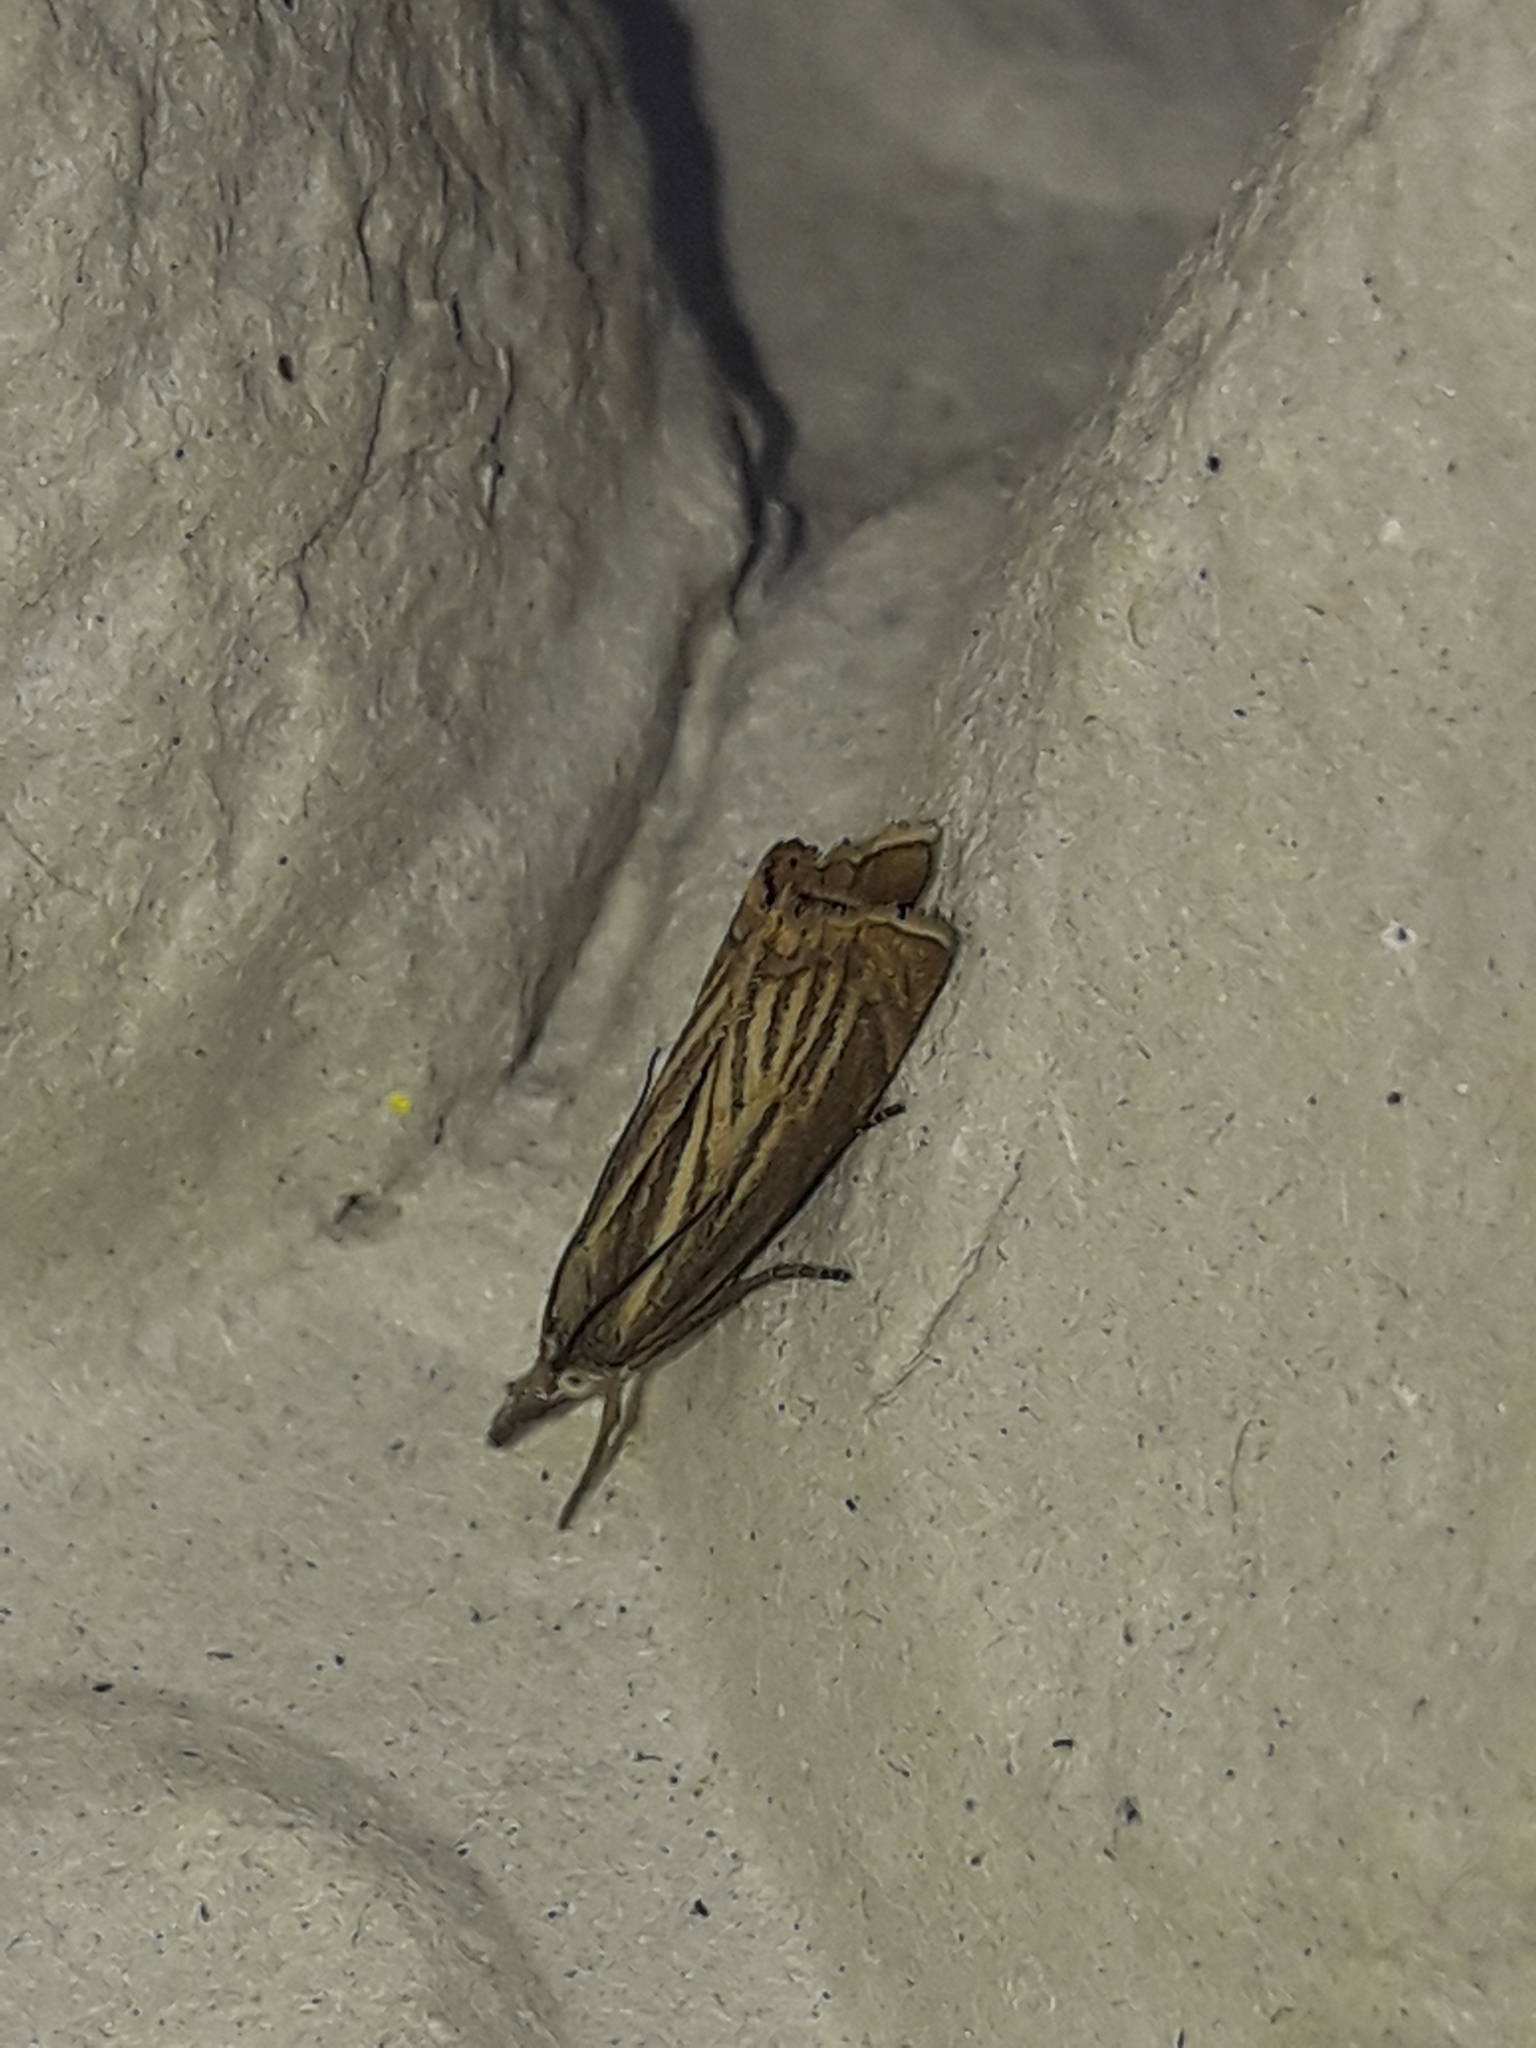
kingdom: Animalia
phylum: Arthropoda
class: Insecta
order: Lepidoptera
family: Crambidae
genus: Chrysoteuchia
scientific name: Chrysoteuchia culmella
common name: Garden grass-veneer
